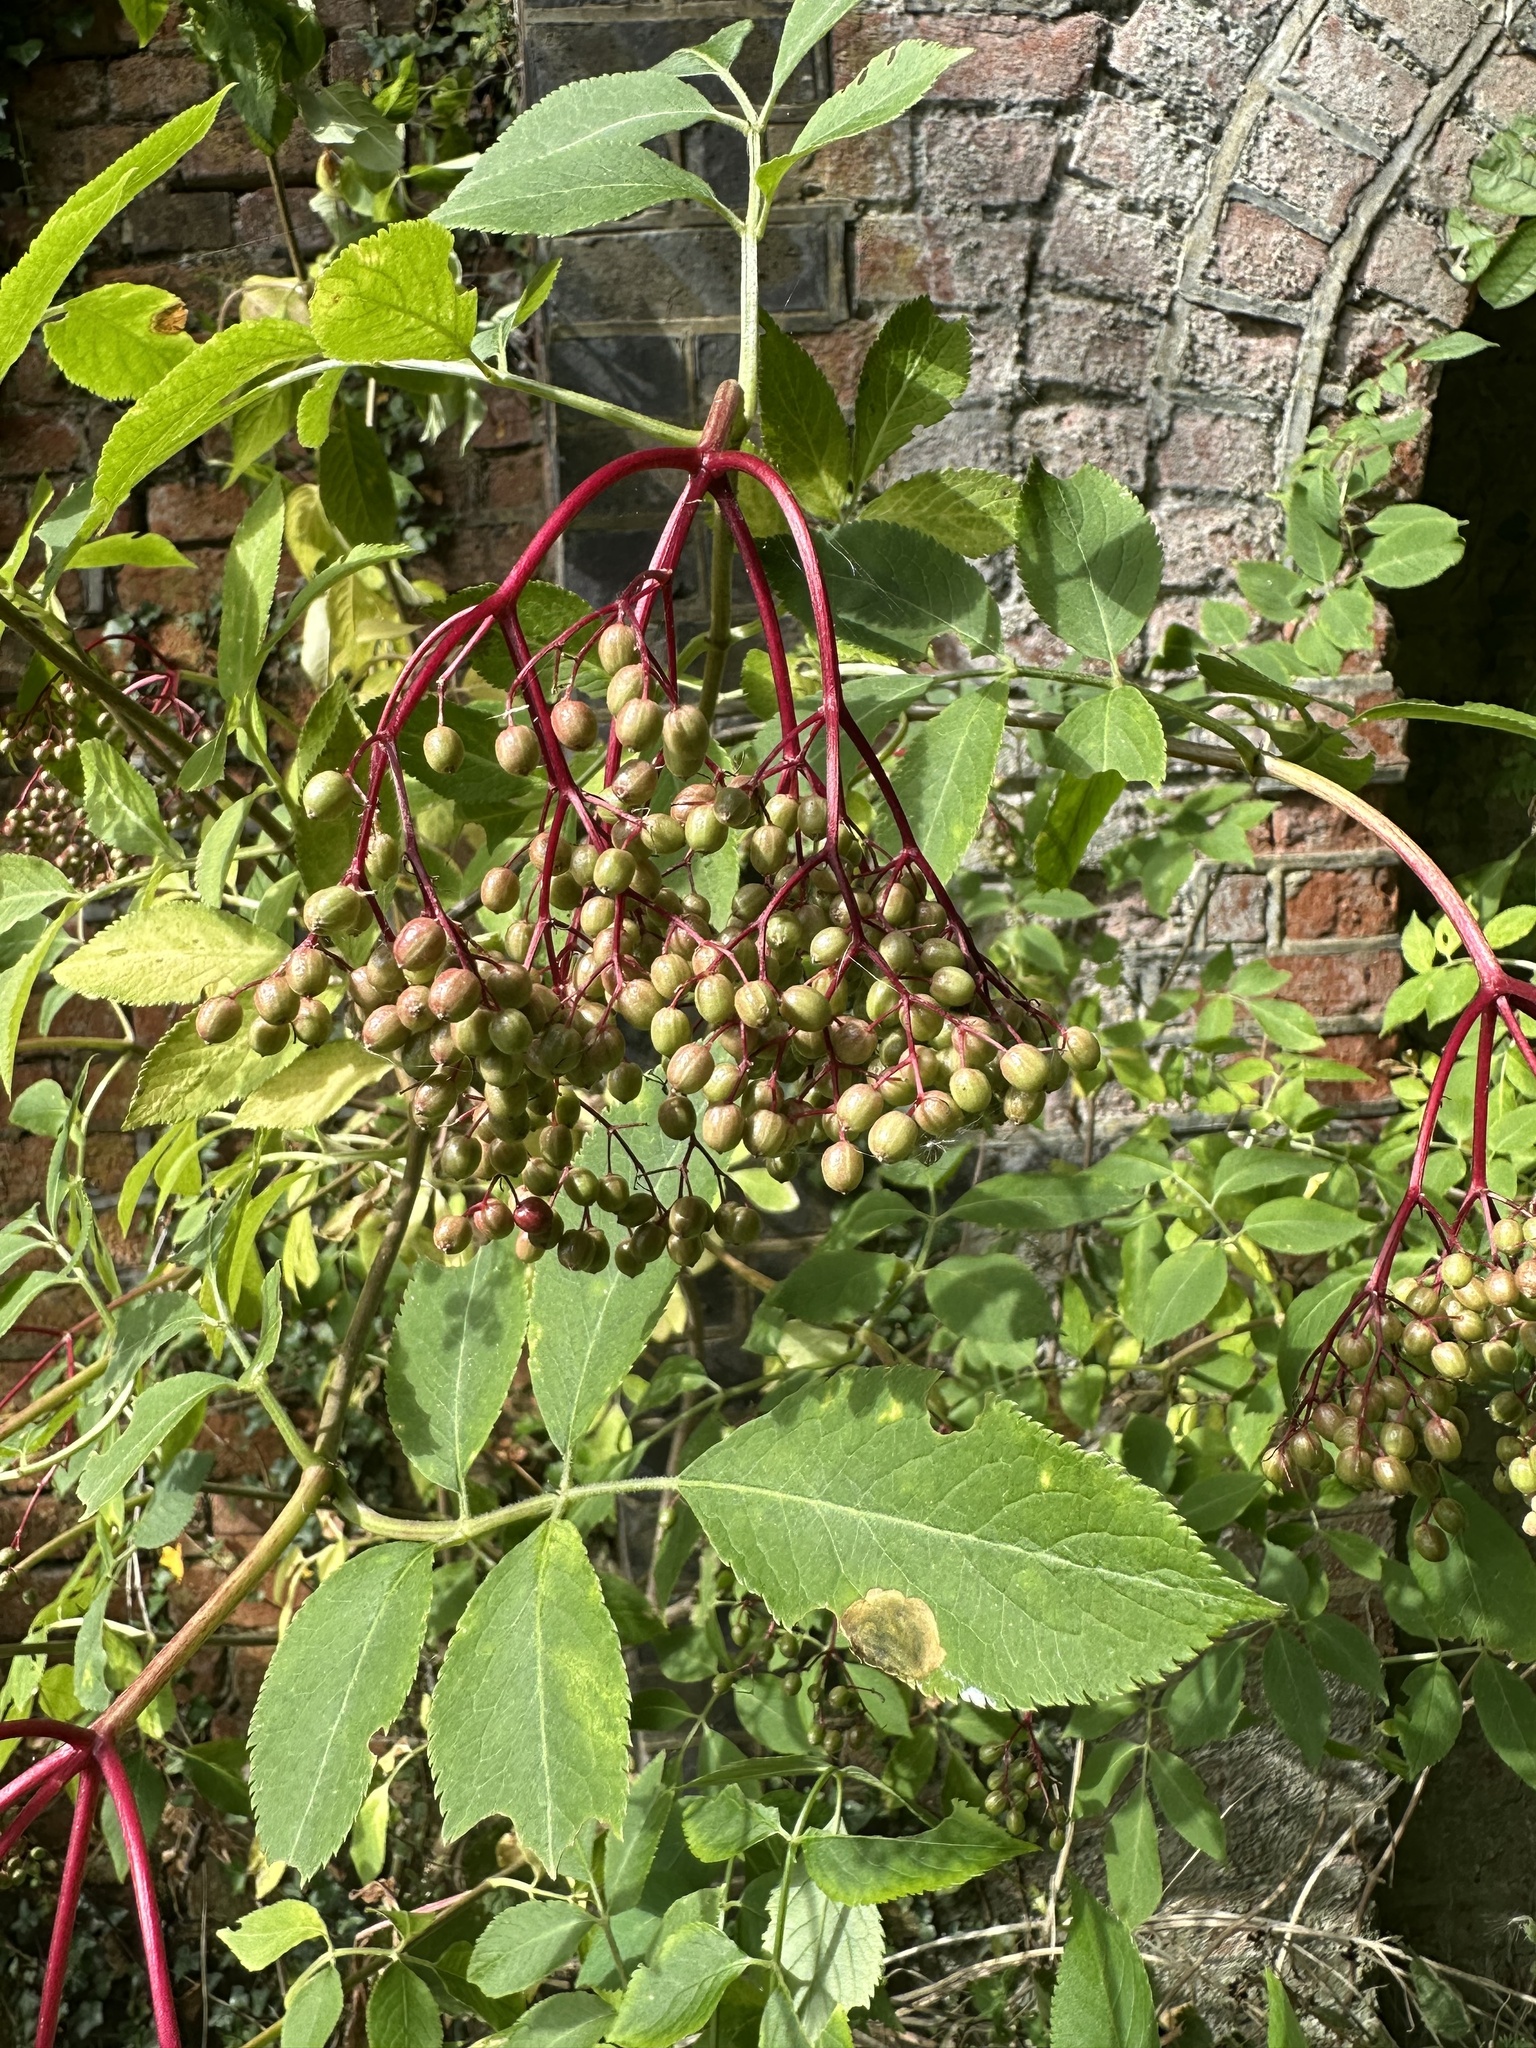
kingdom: Plantae
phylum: Tracheophyta
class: Magnoliopsida
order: Dipsacales
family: Viburnaceae
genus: Sambucus
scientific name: Sambucus nigra
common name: Elder
